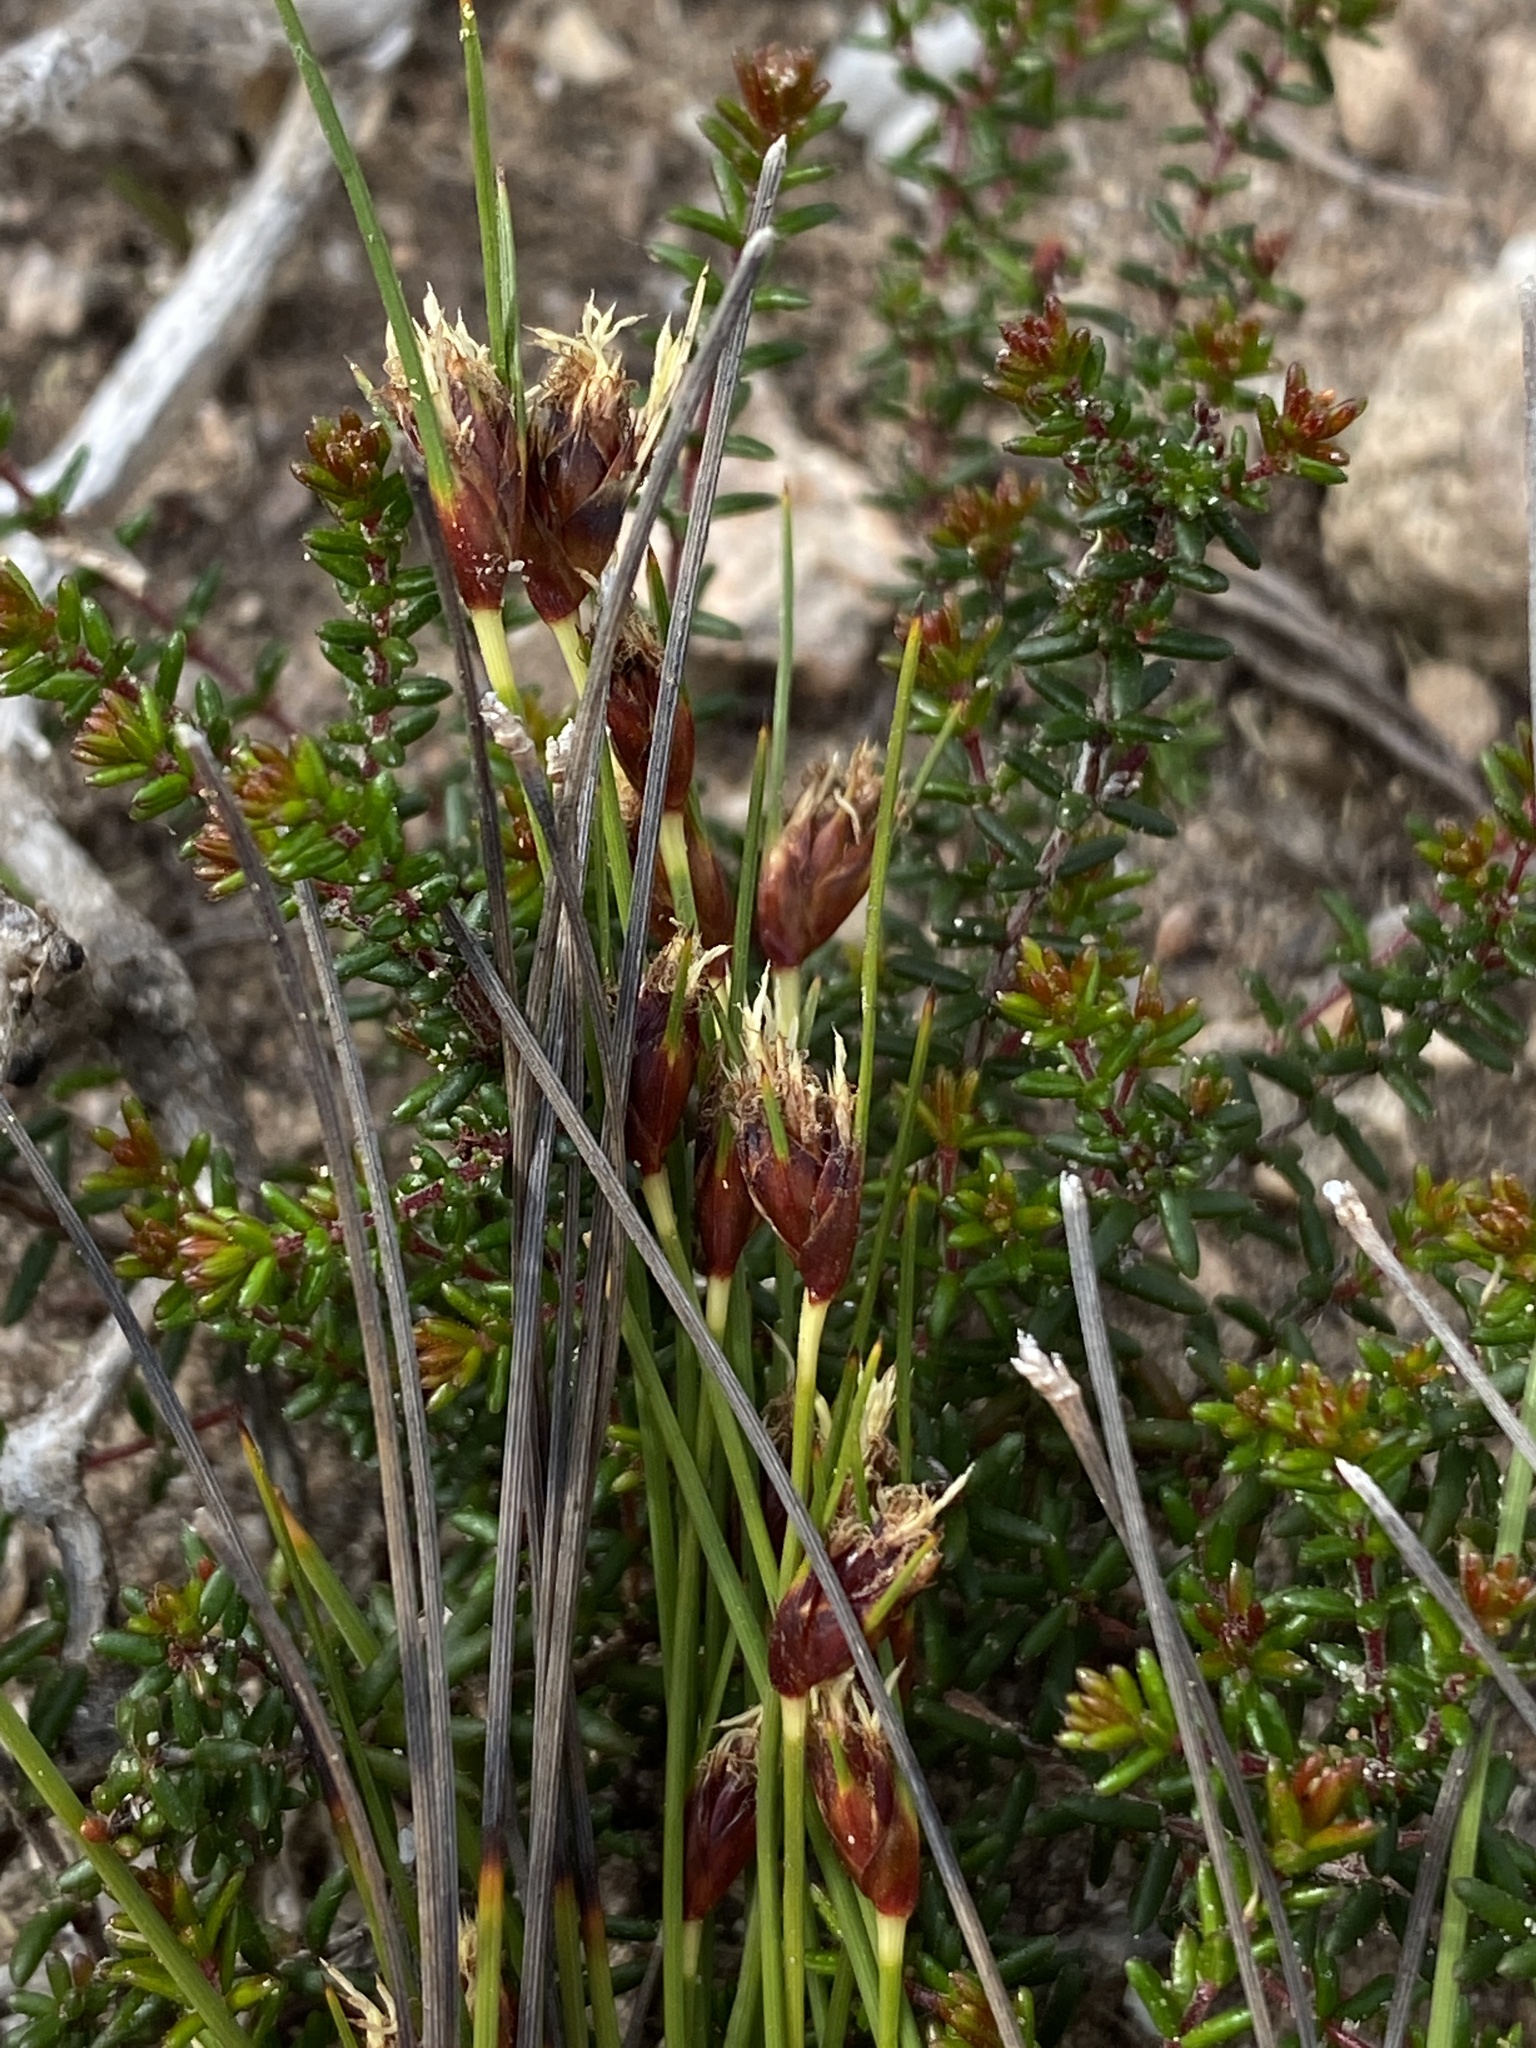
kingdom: Plantae
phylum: Tracheophyta
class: Liliopsida
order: Poales
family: Cyperaceae
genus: Ficinia
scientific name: Ficinia dunensis
